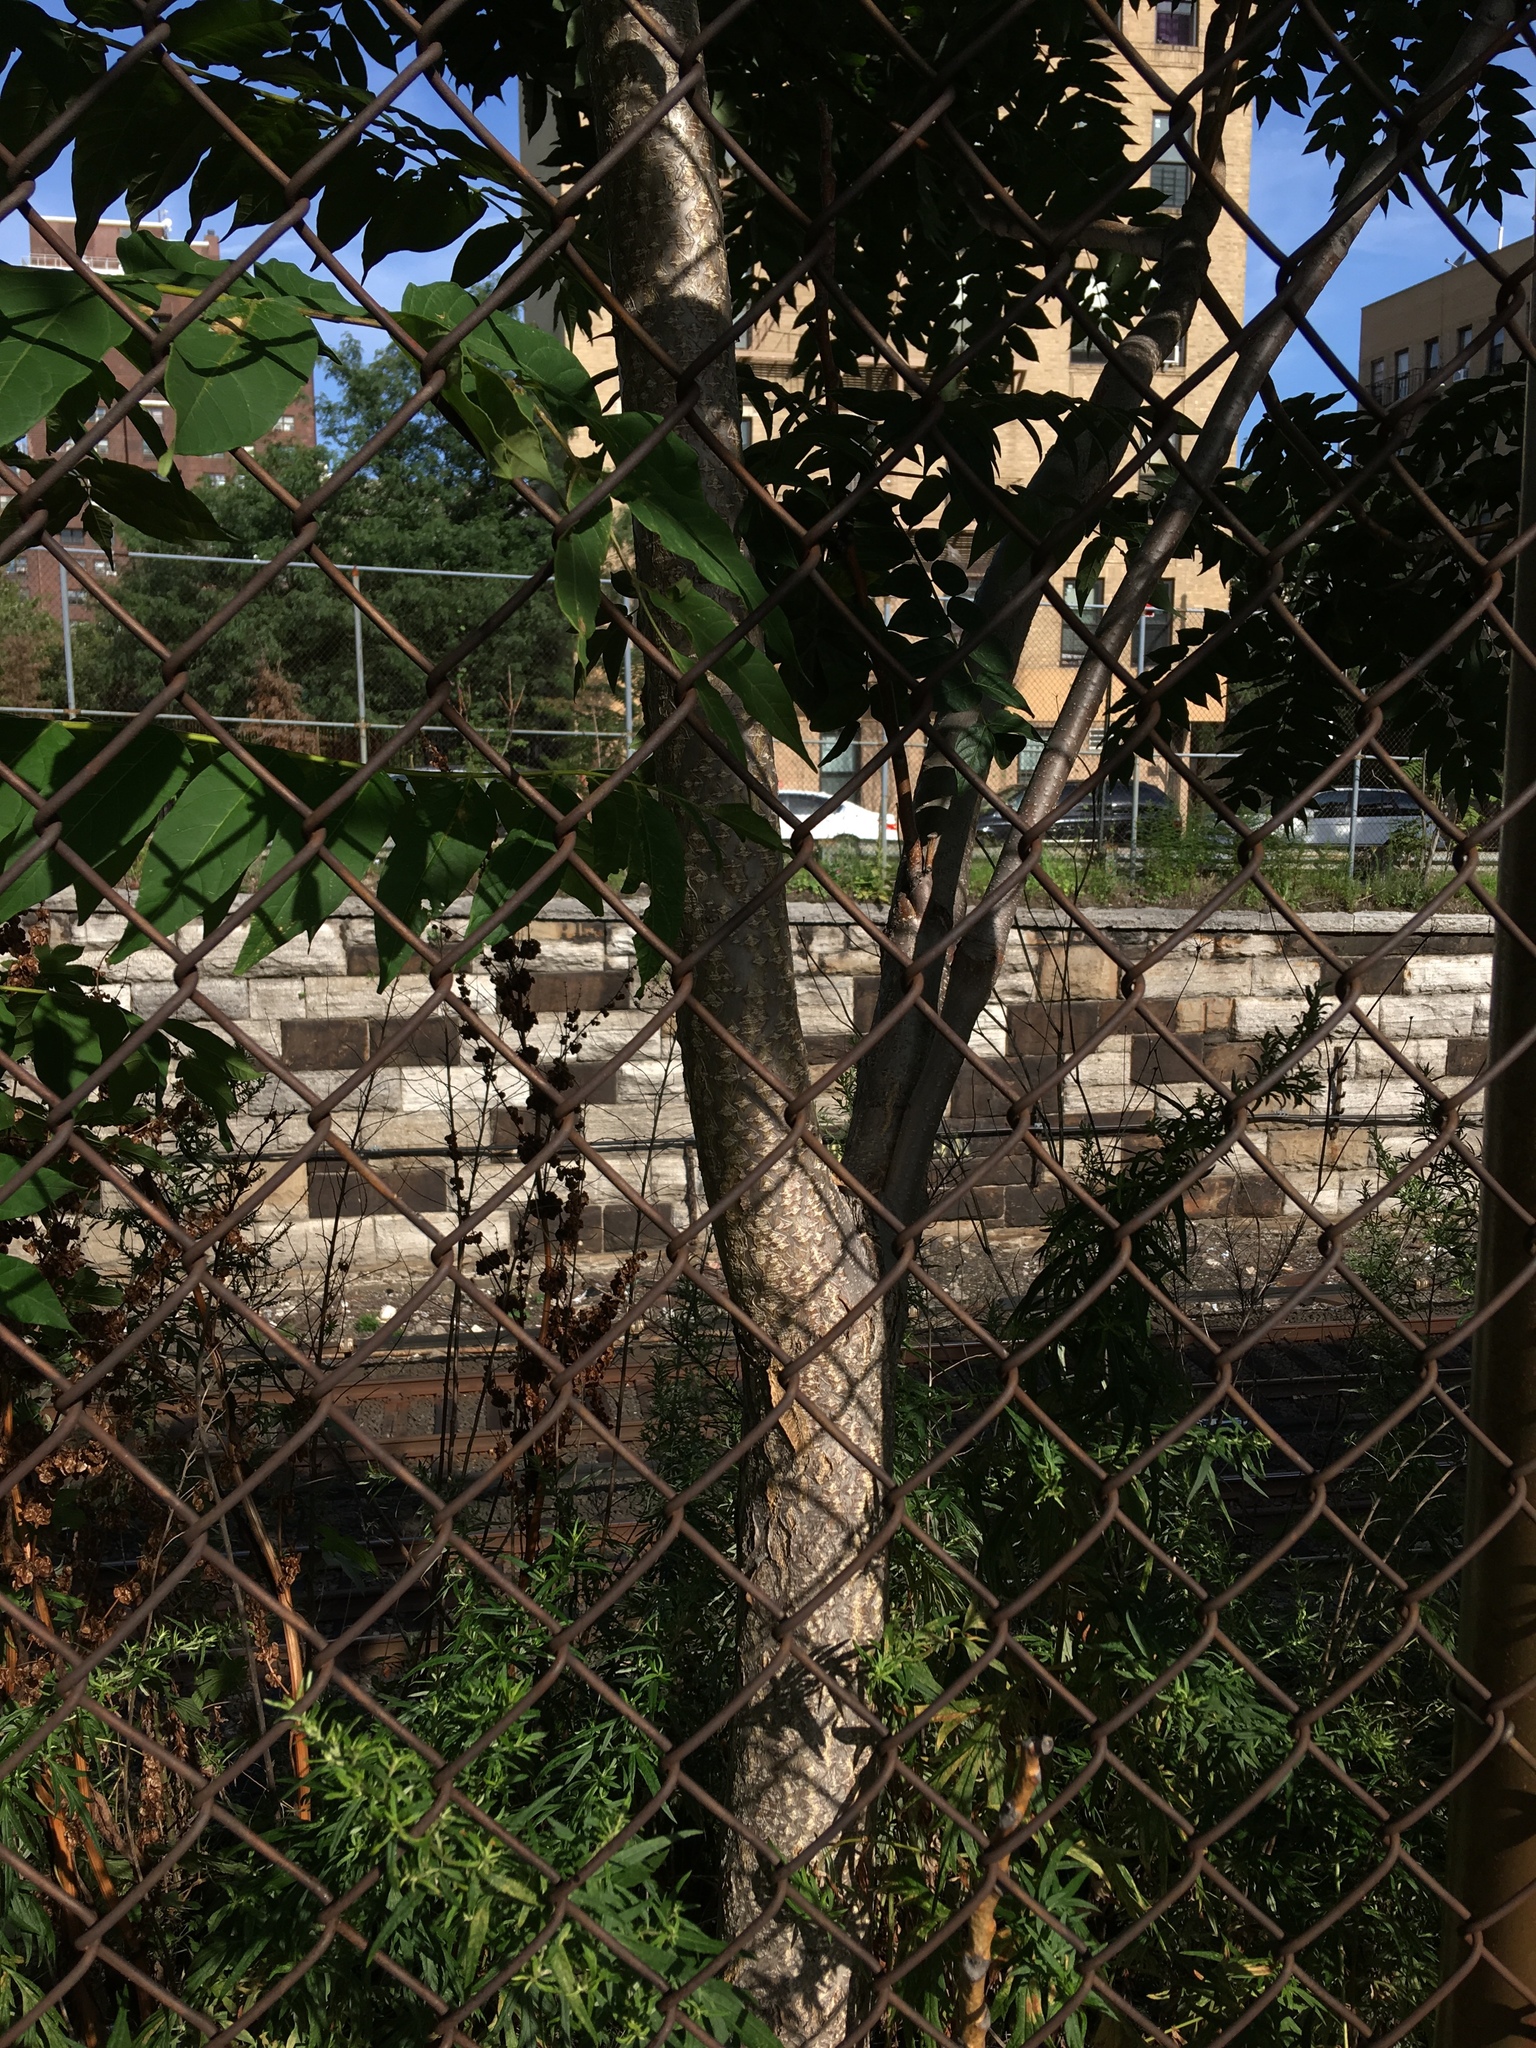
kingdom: Plantae
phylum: Tracheophyta
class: Magnoliopsida
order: Sapindales
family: Simaroubaceae
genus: Ailanthus
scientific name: Ailanthus altissima
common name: Tree-of-heaven
